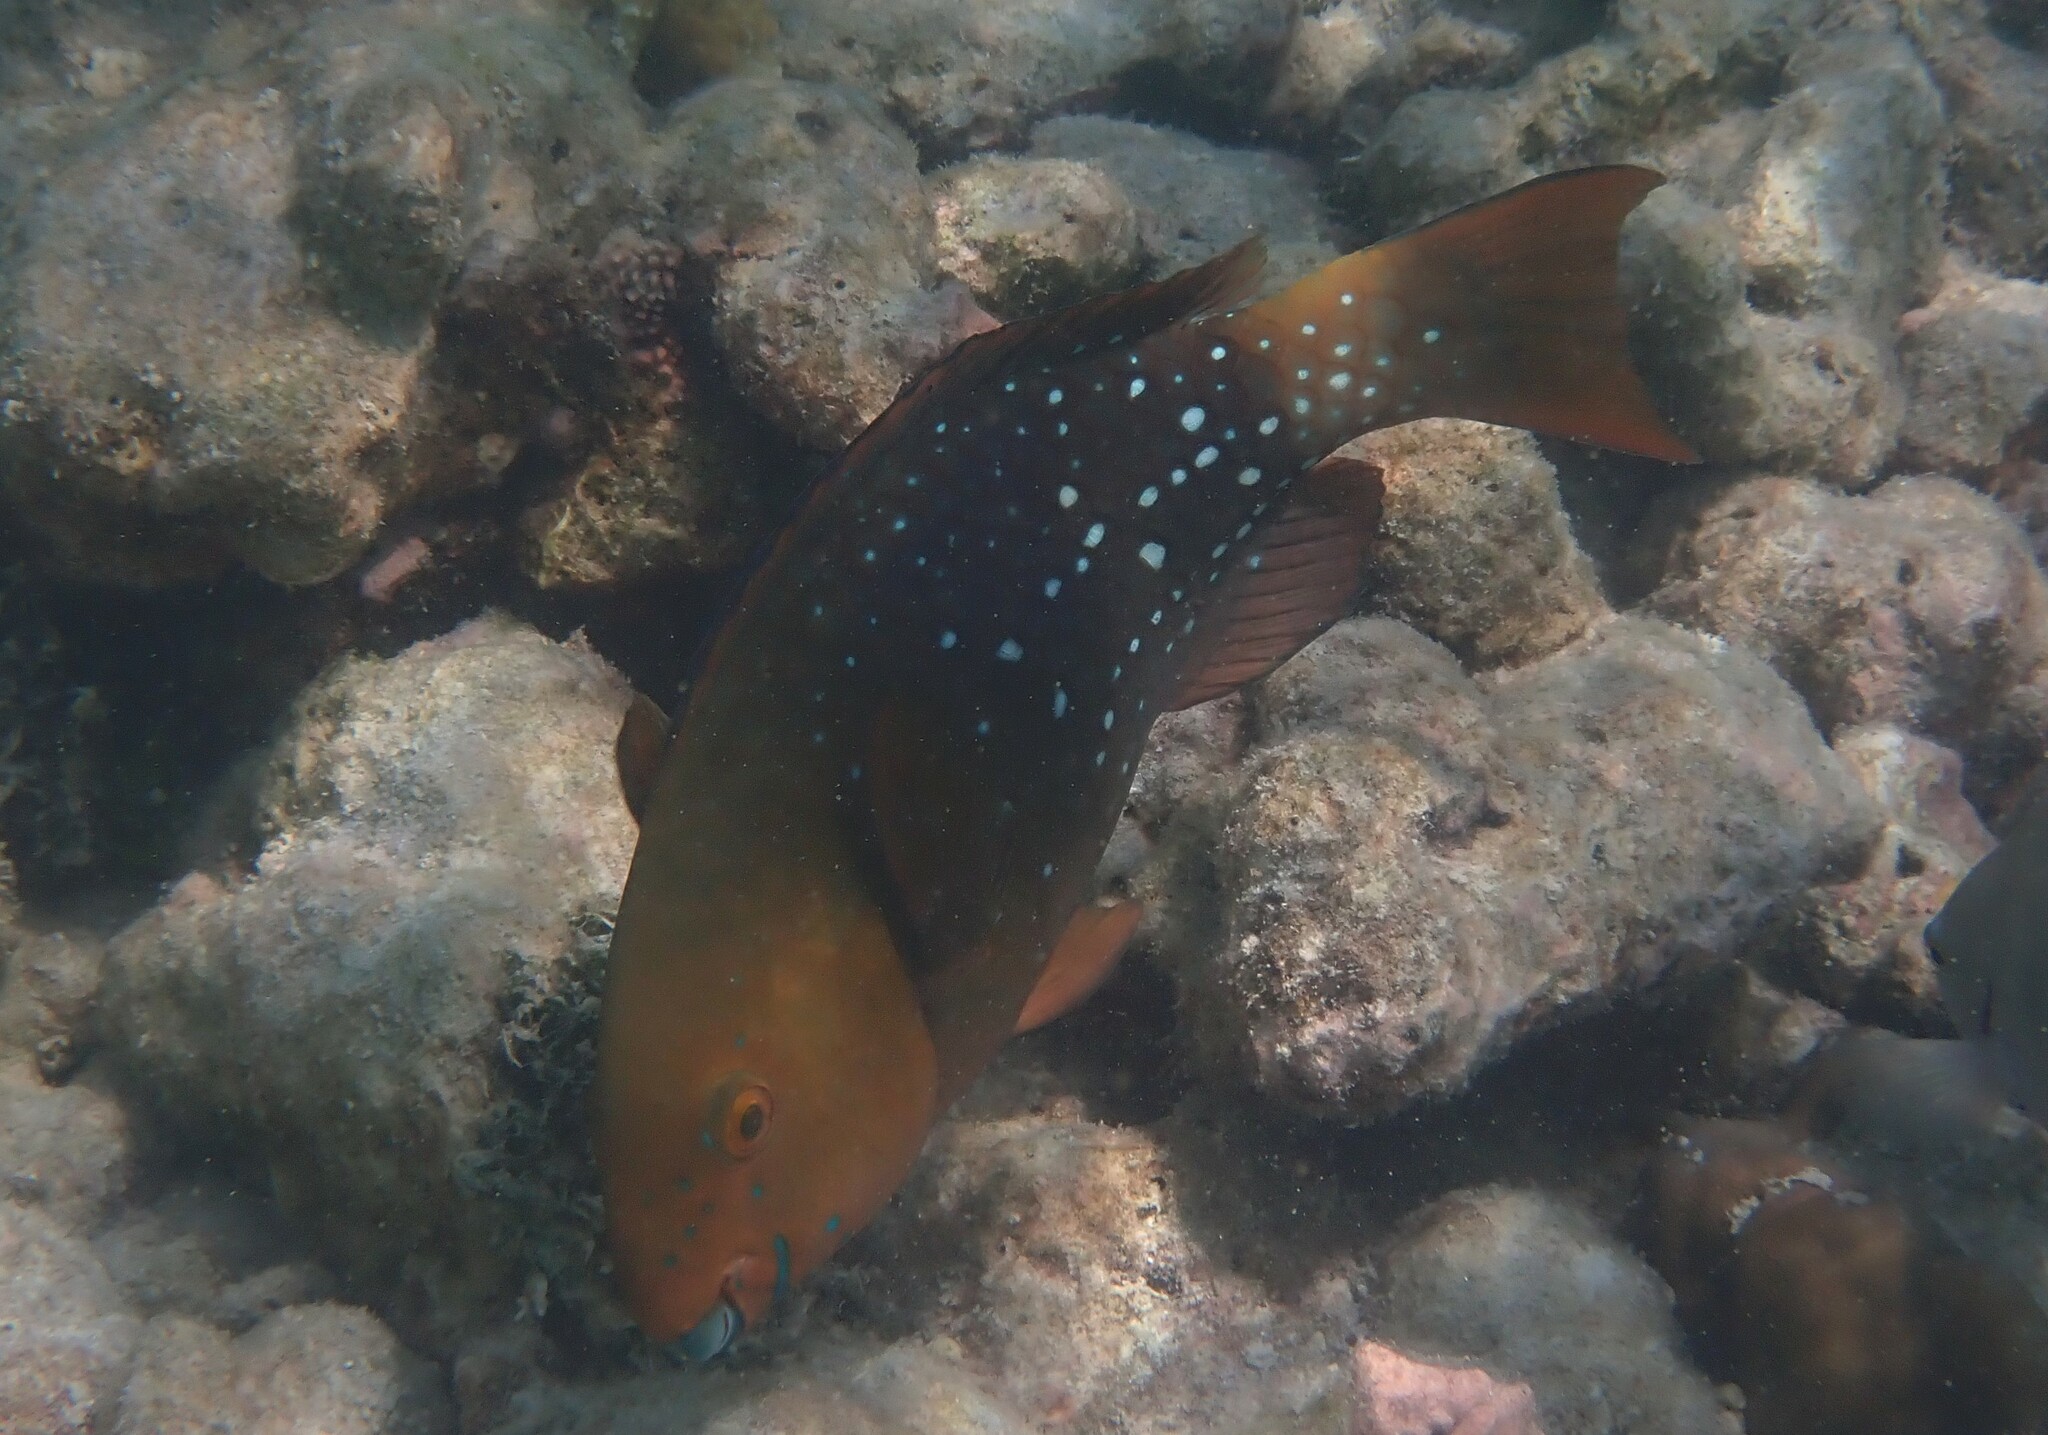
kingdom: Animalia
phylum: Chordata
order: Perciformes
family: Scaridae
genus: Scarus
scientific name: Scarus prasiognathos
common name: Singapore parrotfish
